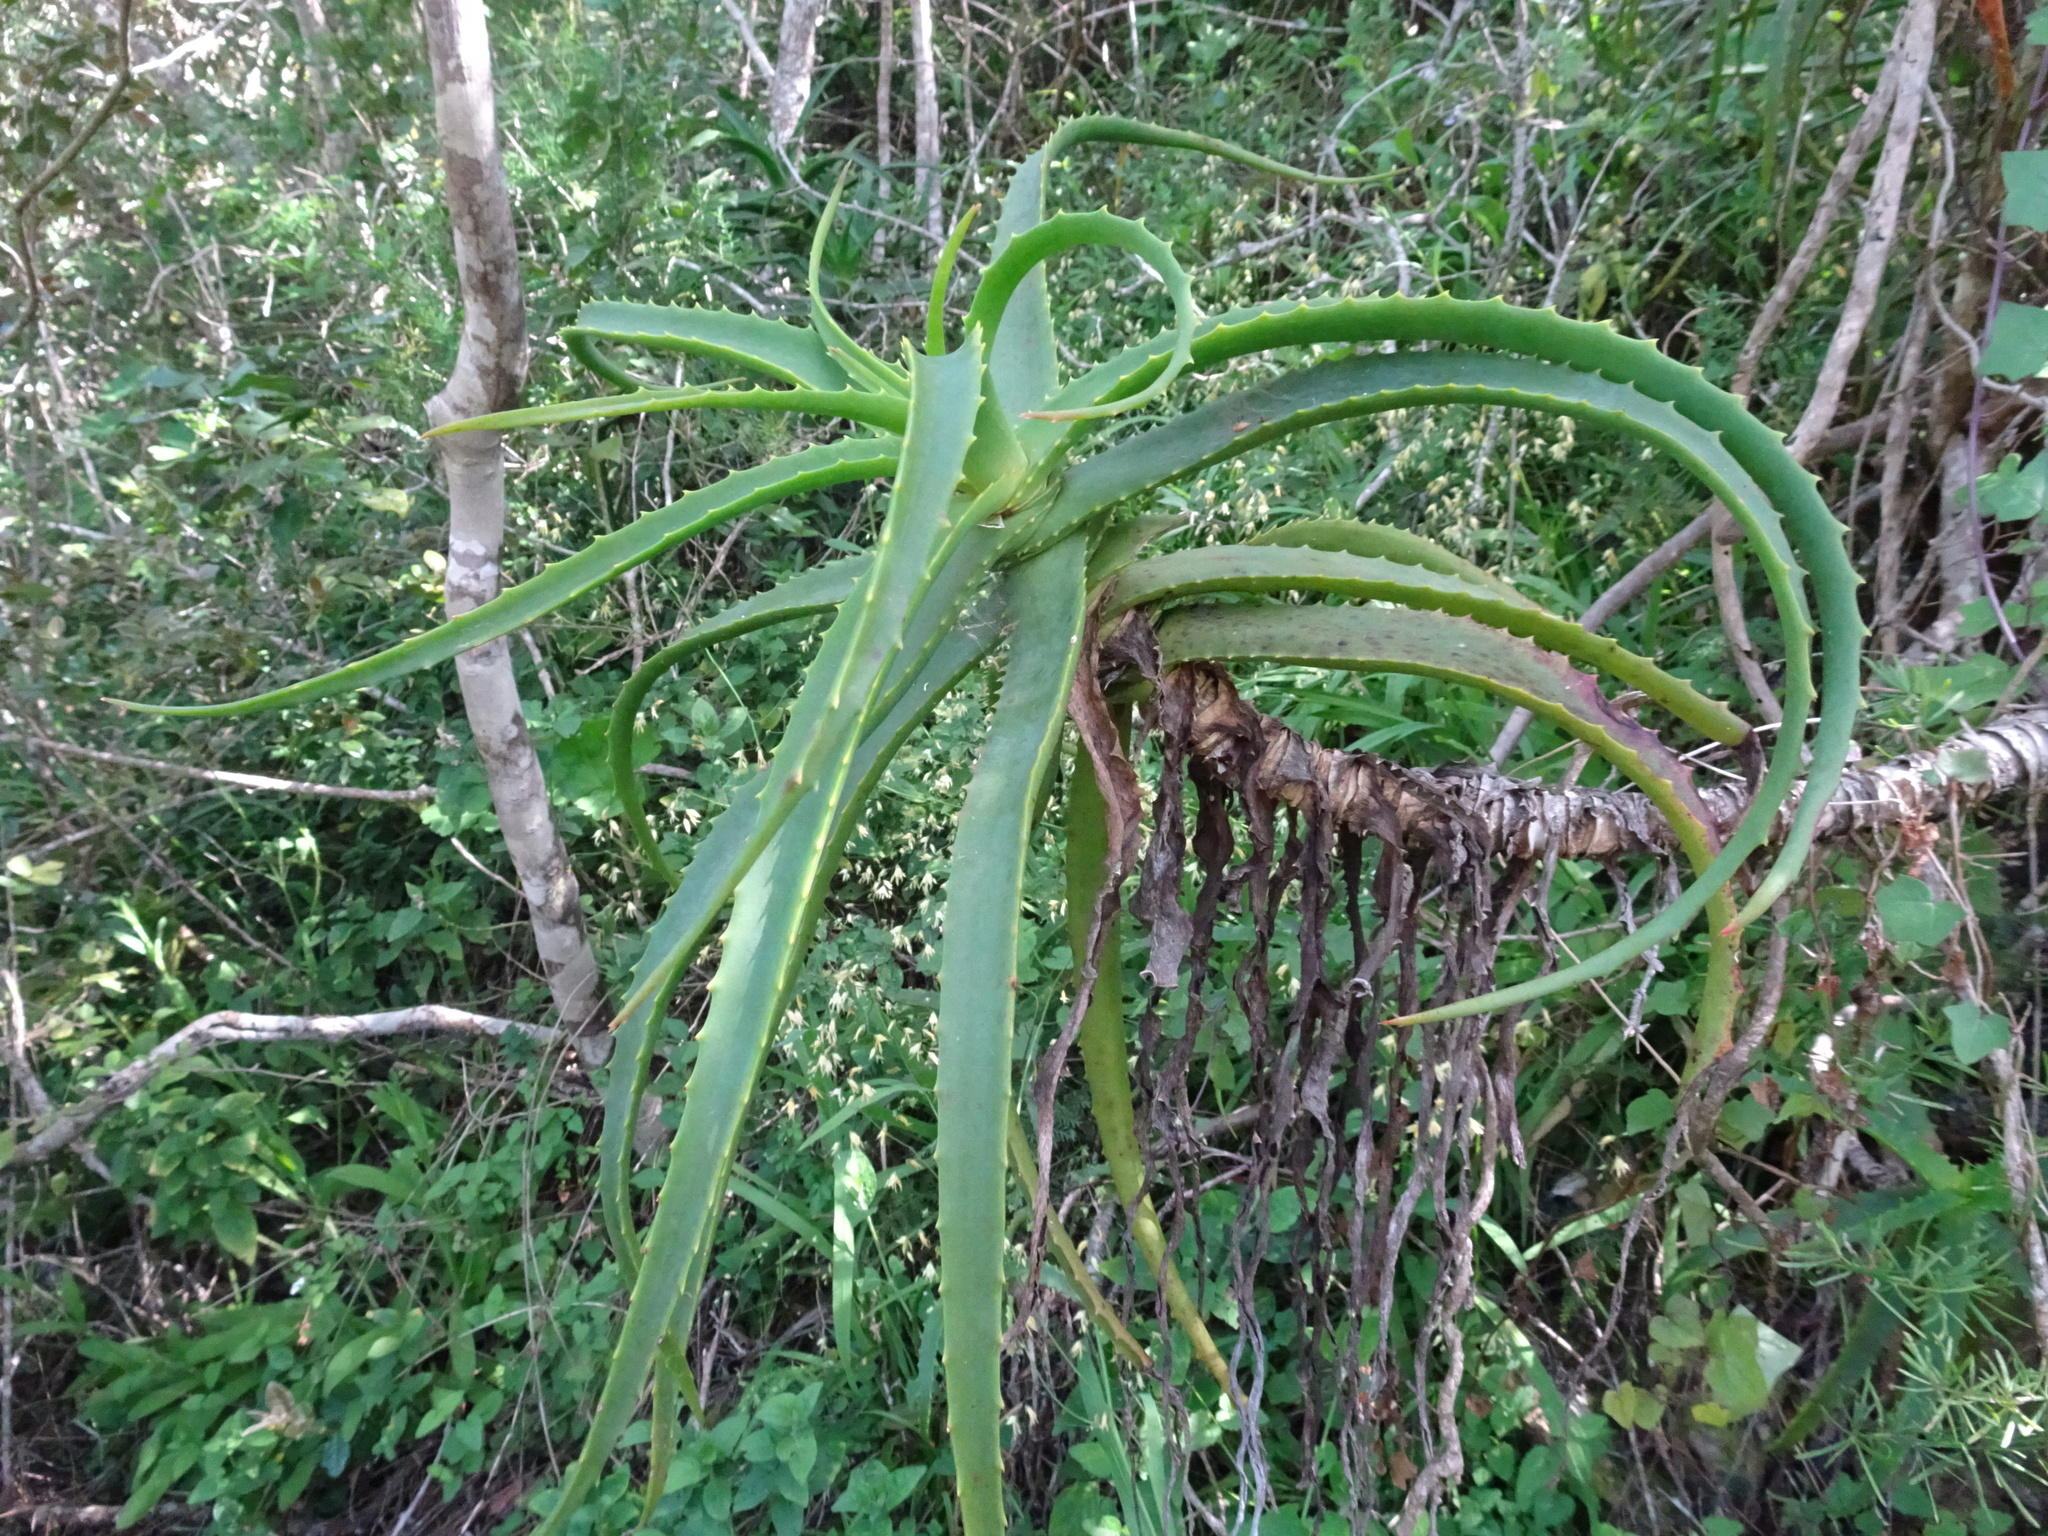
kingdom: Plantae
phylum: Tracheophyta
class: Liliopsida
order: Asparagales
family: Asphodelaceae
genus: Aloe
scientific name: Aloe arborescens
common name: Candelabra aloe
